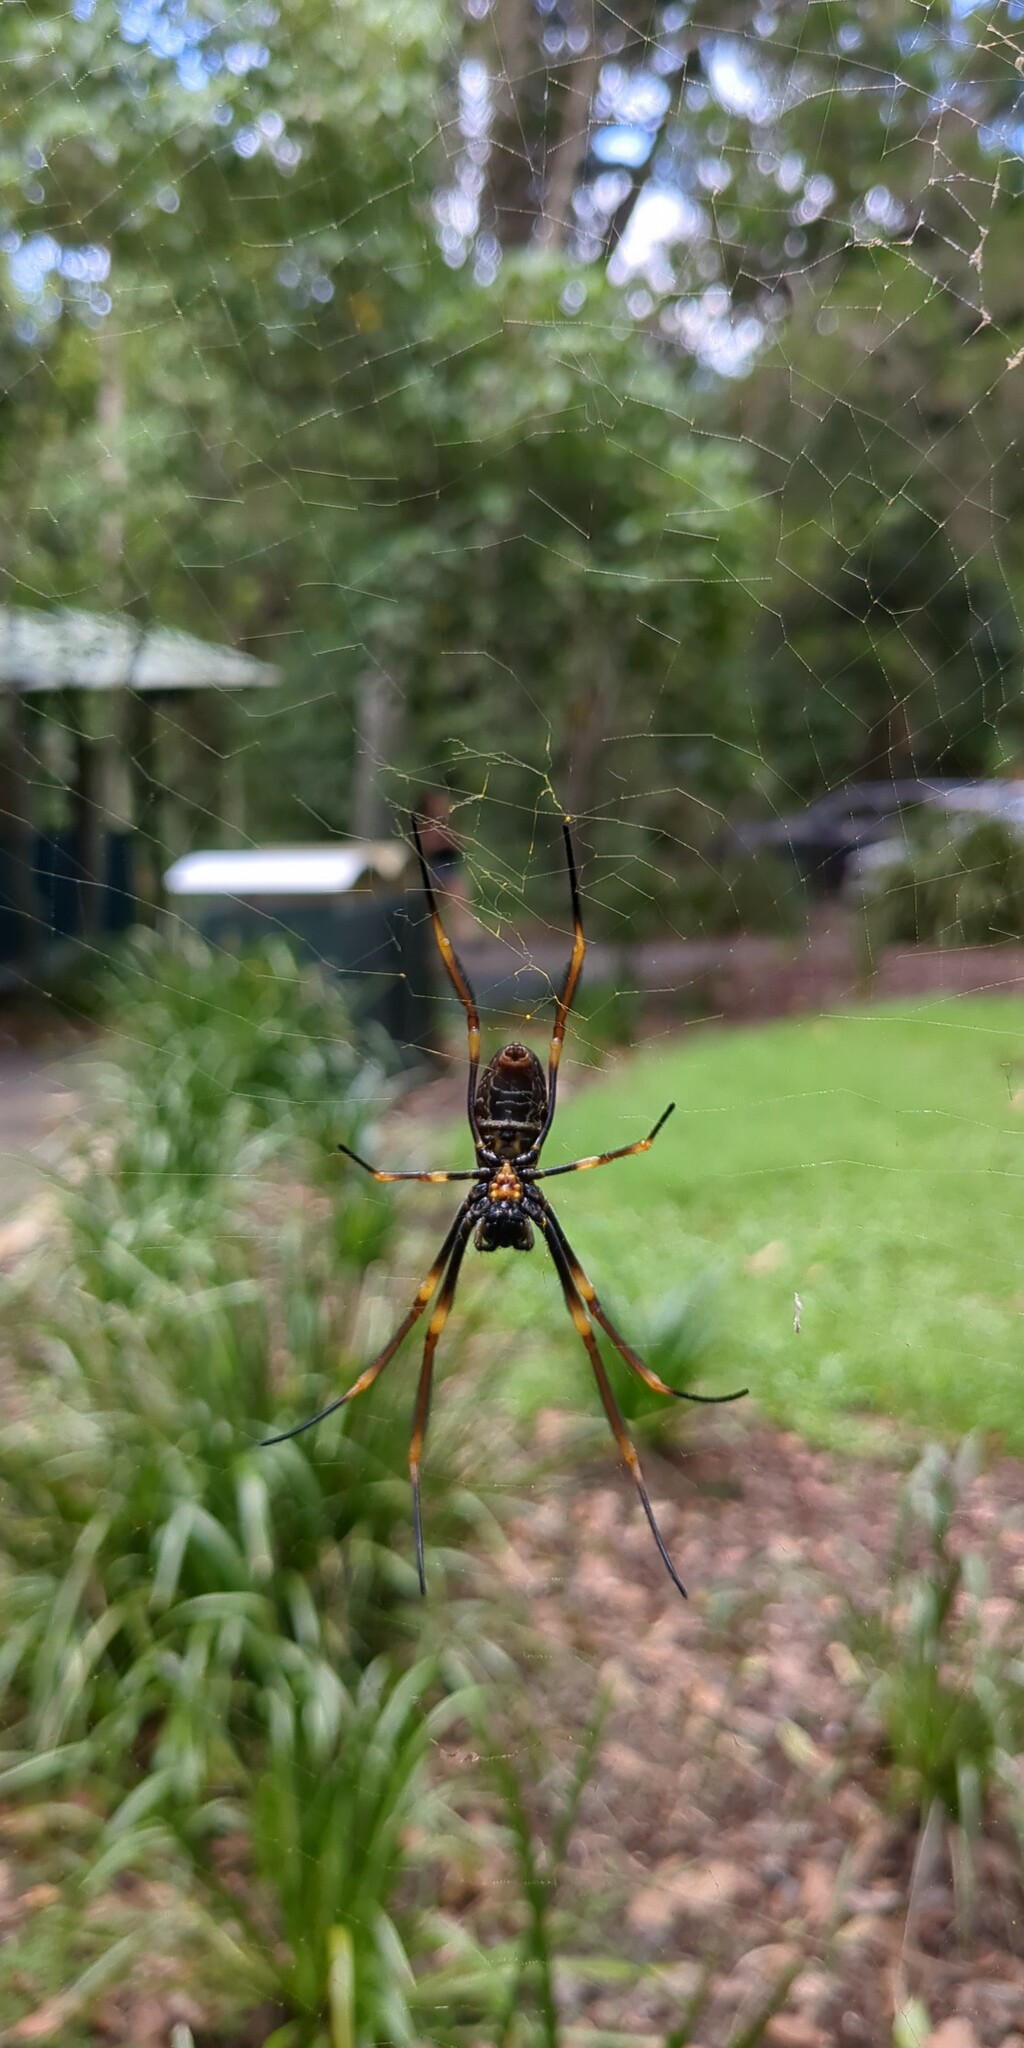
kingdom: Animalia
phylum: Arthropoda
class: Arachnida
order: Araneae
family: Araneidae
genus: Trichonephila
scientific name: Trichonephila plumipes
